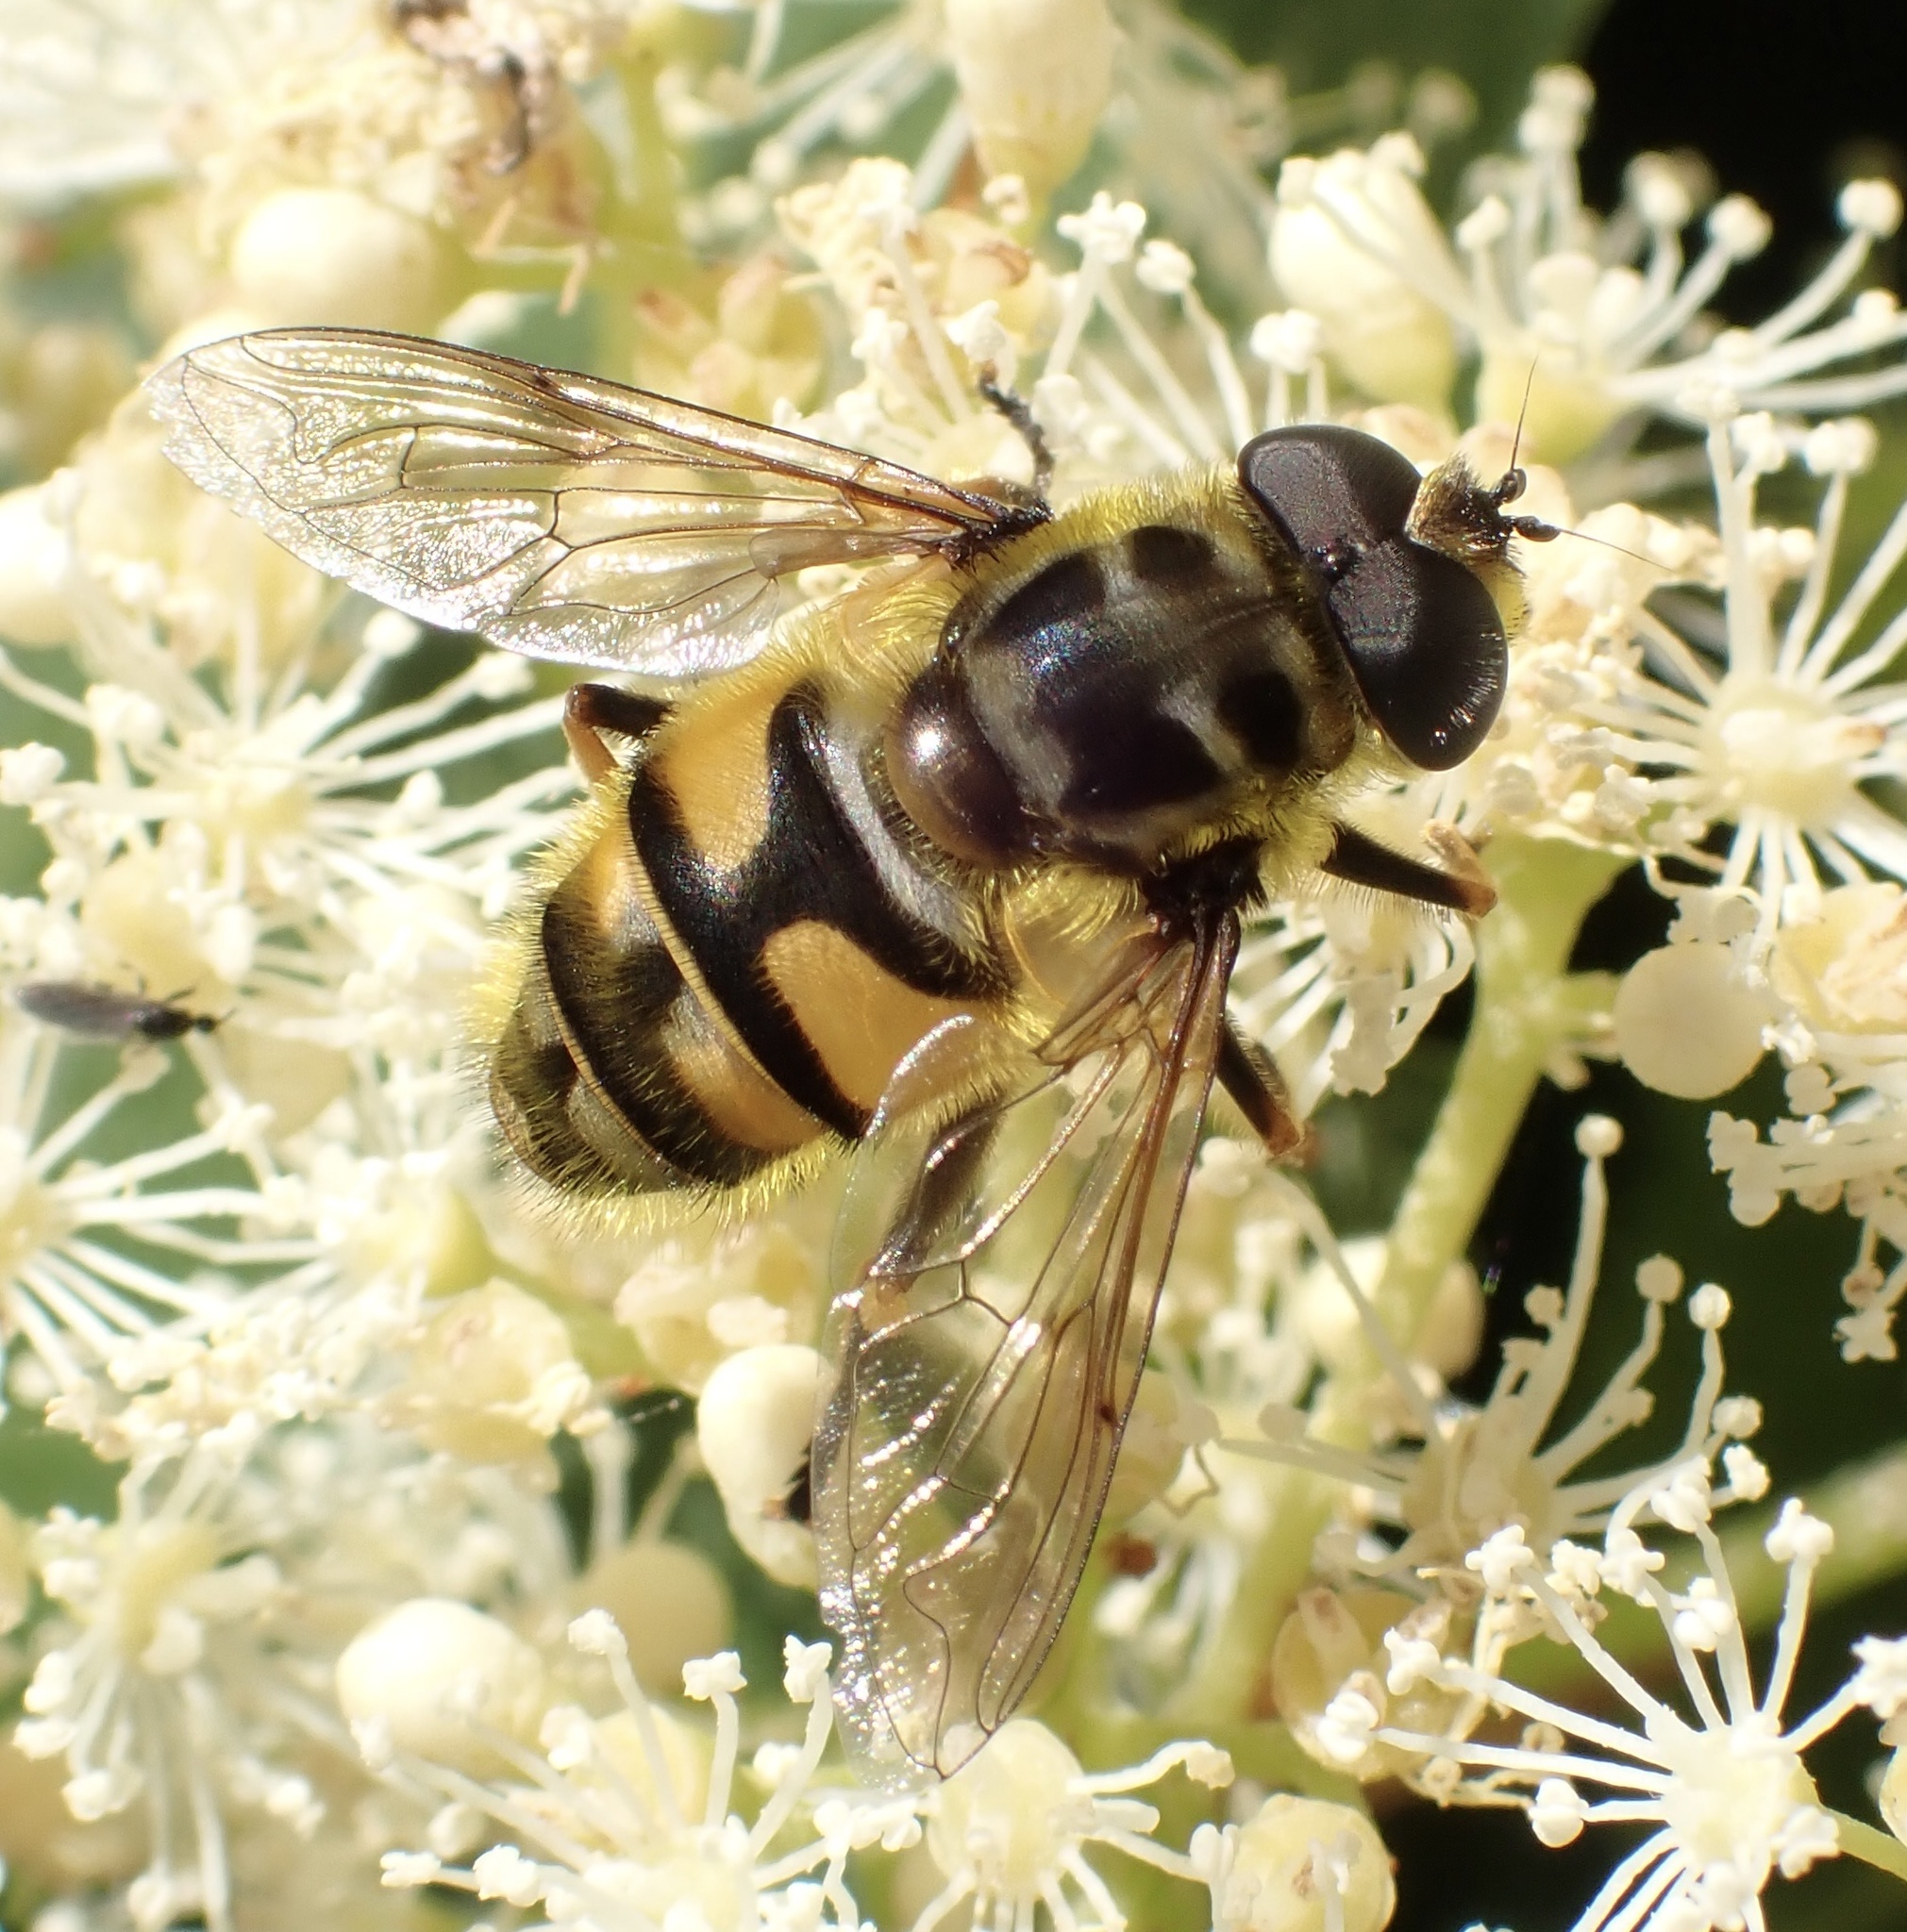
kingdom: Animalia
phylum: Arthropoda
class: Insecta
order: Diptera
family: Syrphidae
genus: Myathropa
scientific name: Myathropa florea
